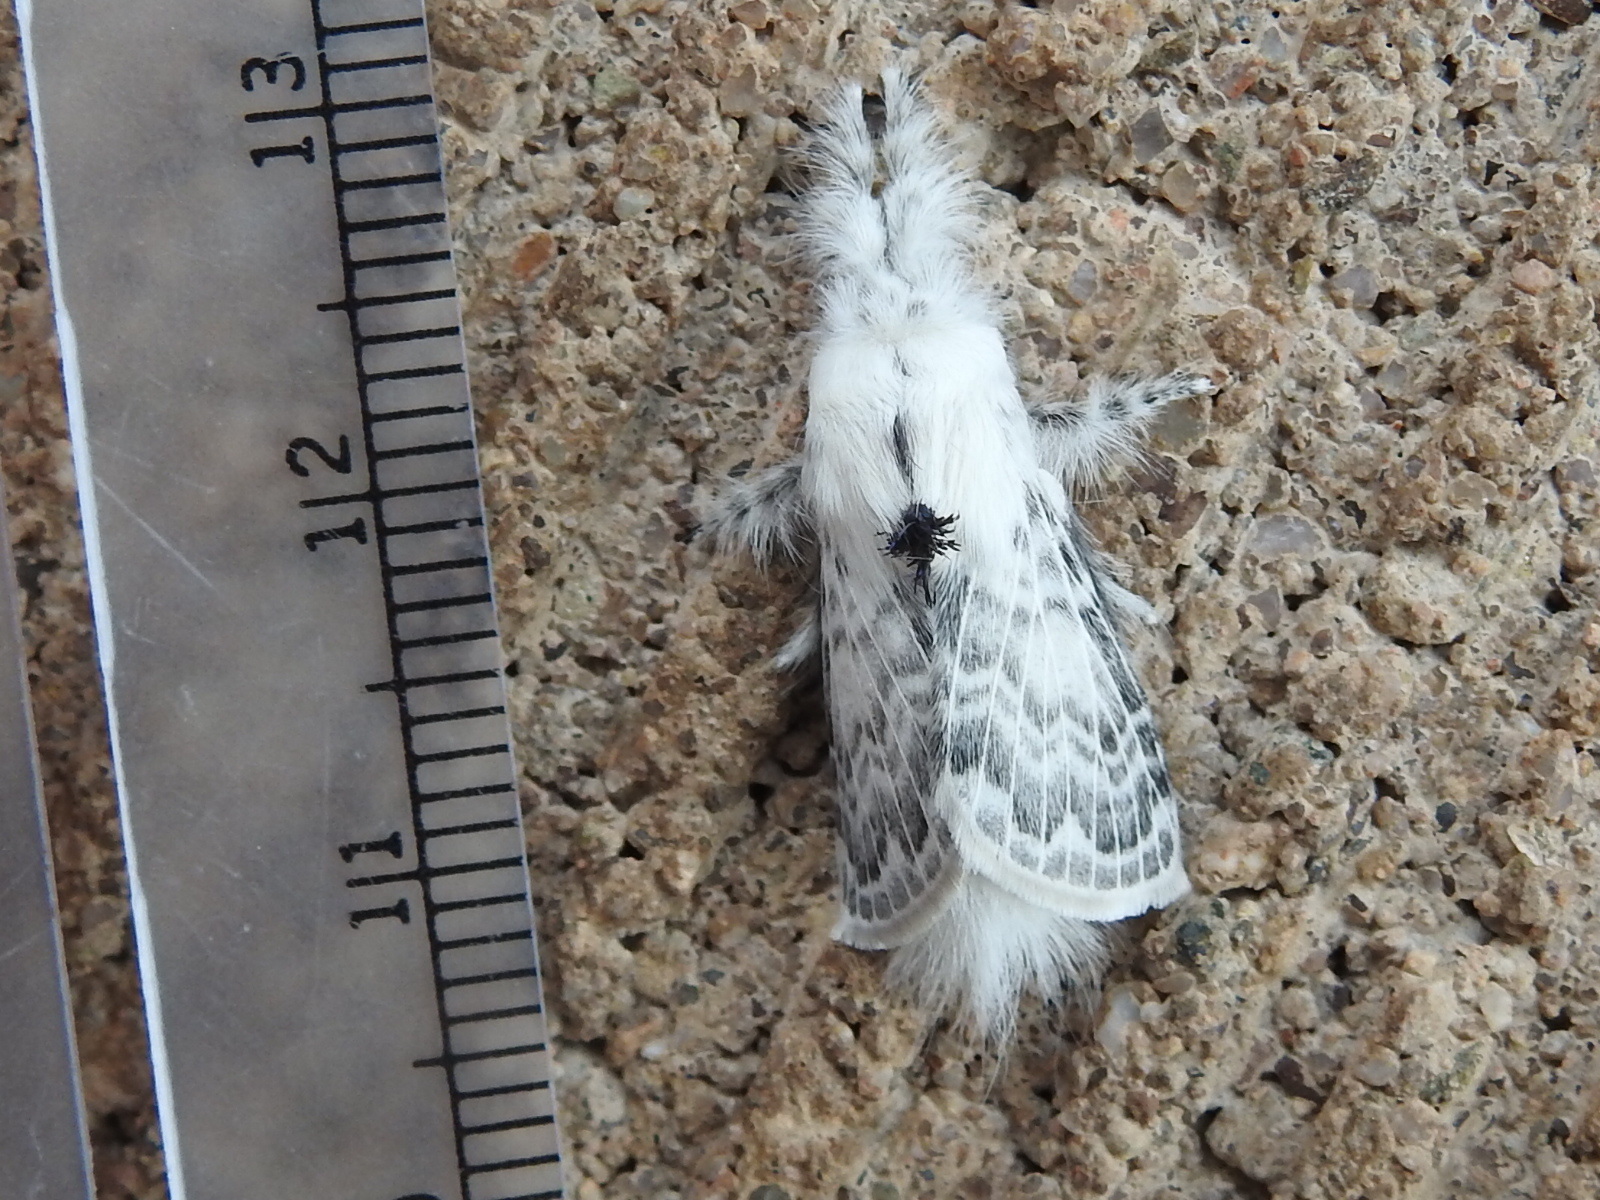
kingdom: Animalia
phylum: Arthropoda
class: Insecta
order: Lepidoptera
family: Lasiocampidae
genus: Apotolype
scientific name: Apotolype brevicrista
